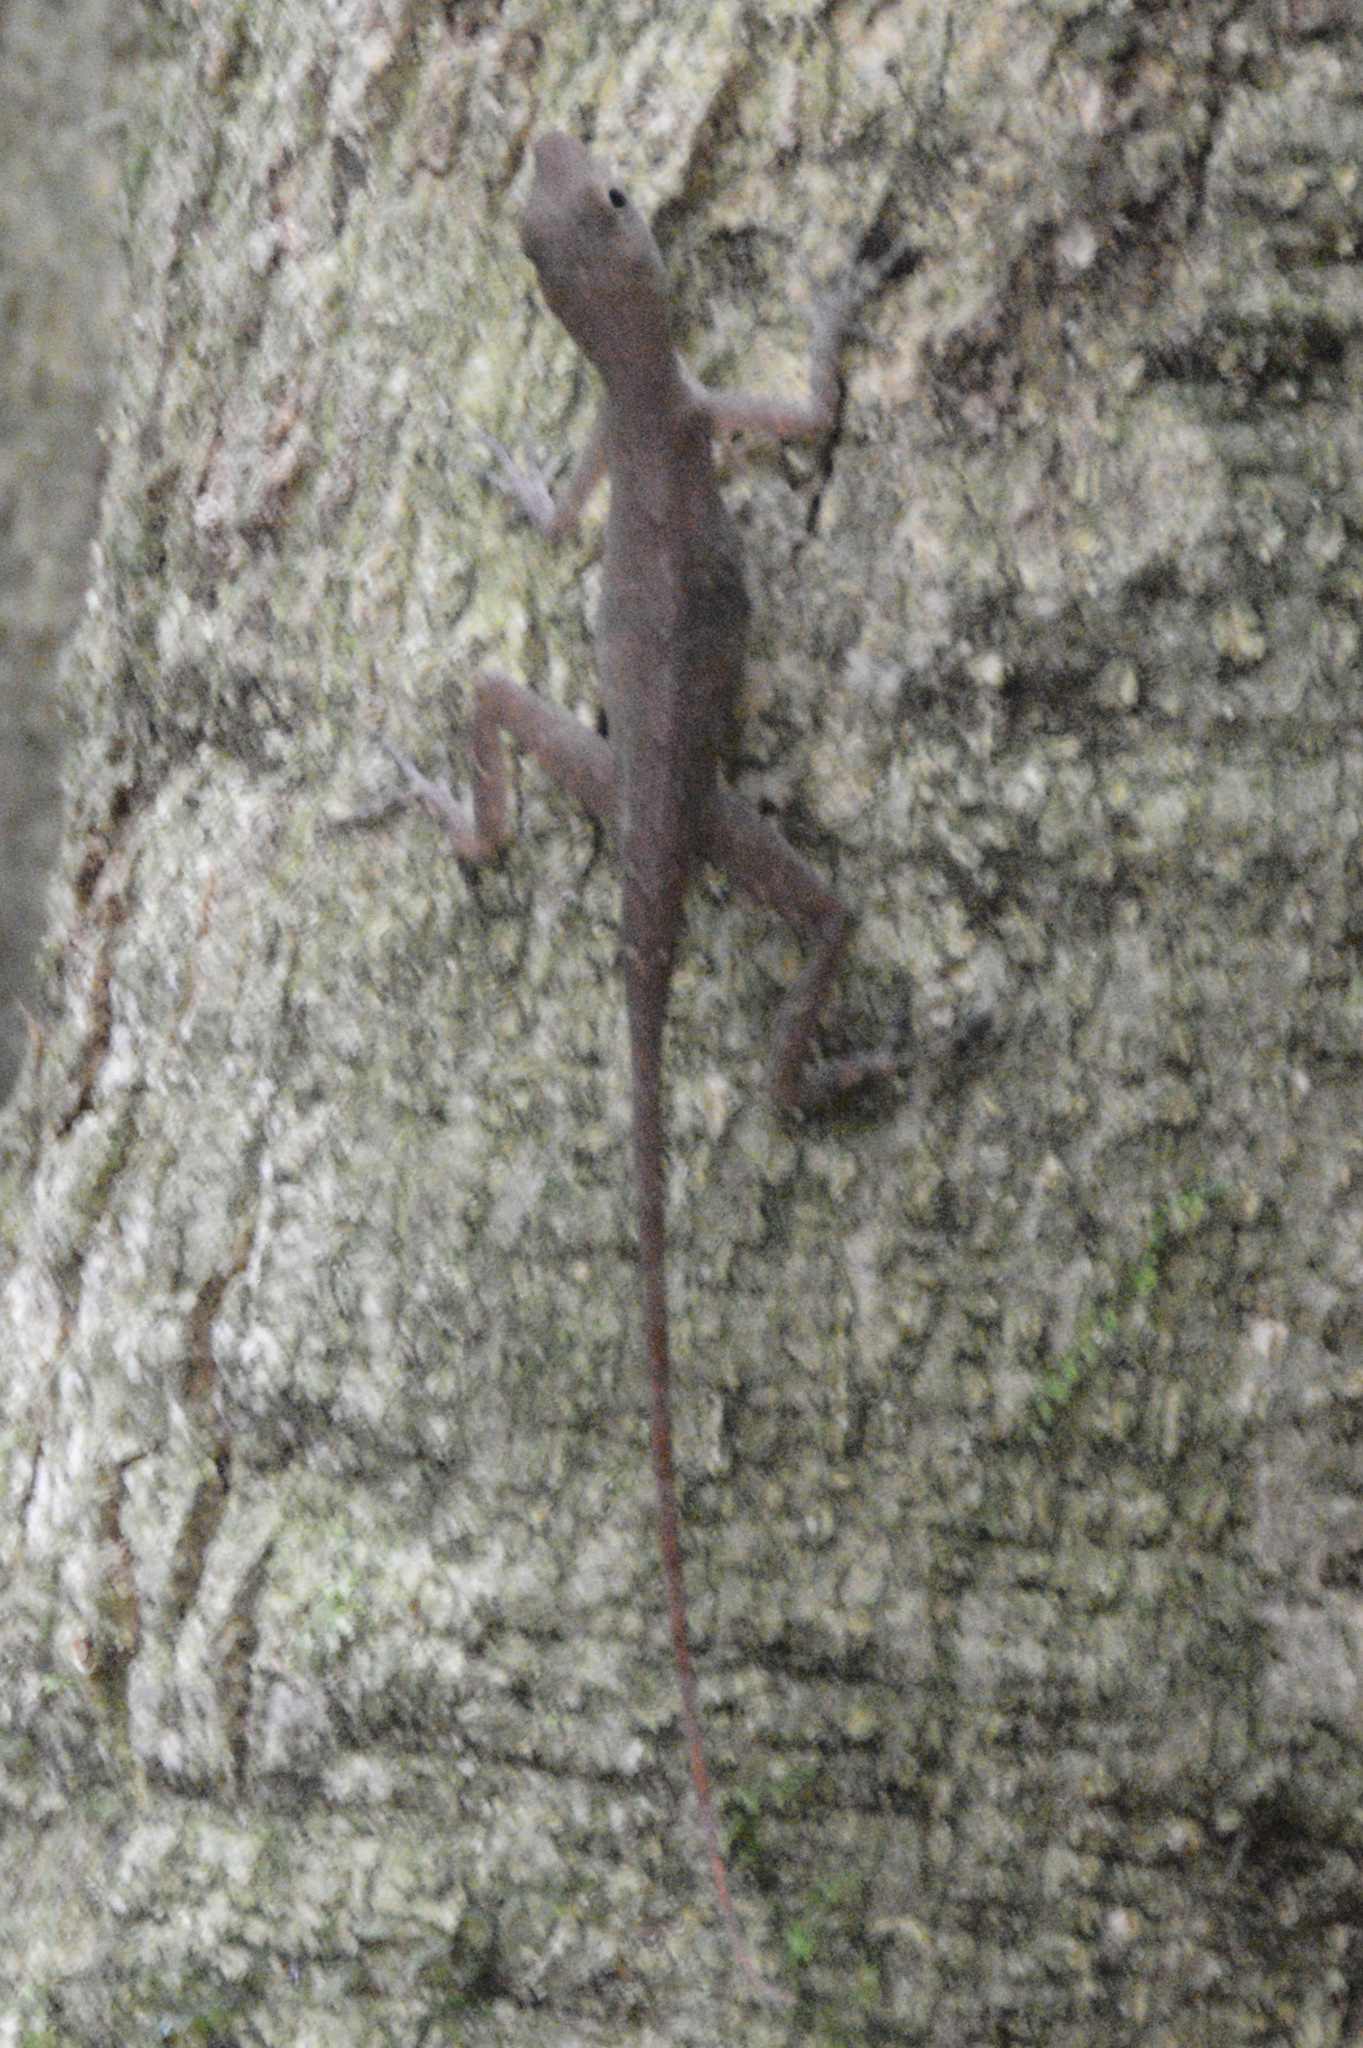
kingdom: Animalia
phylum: Chordata
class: Squamata
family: Dactyloidae
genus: Anolis
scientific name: Anolis limifrons
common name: Border anole
